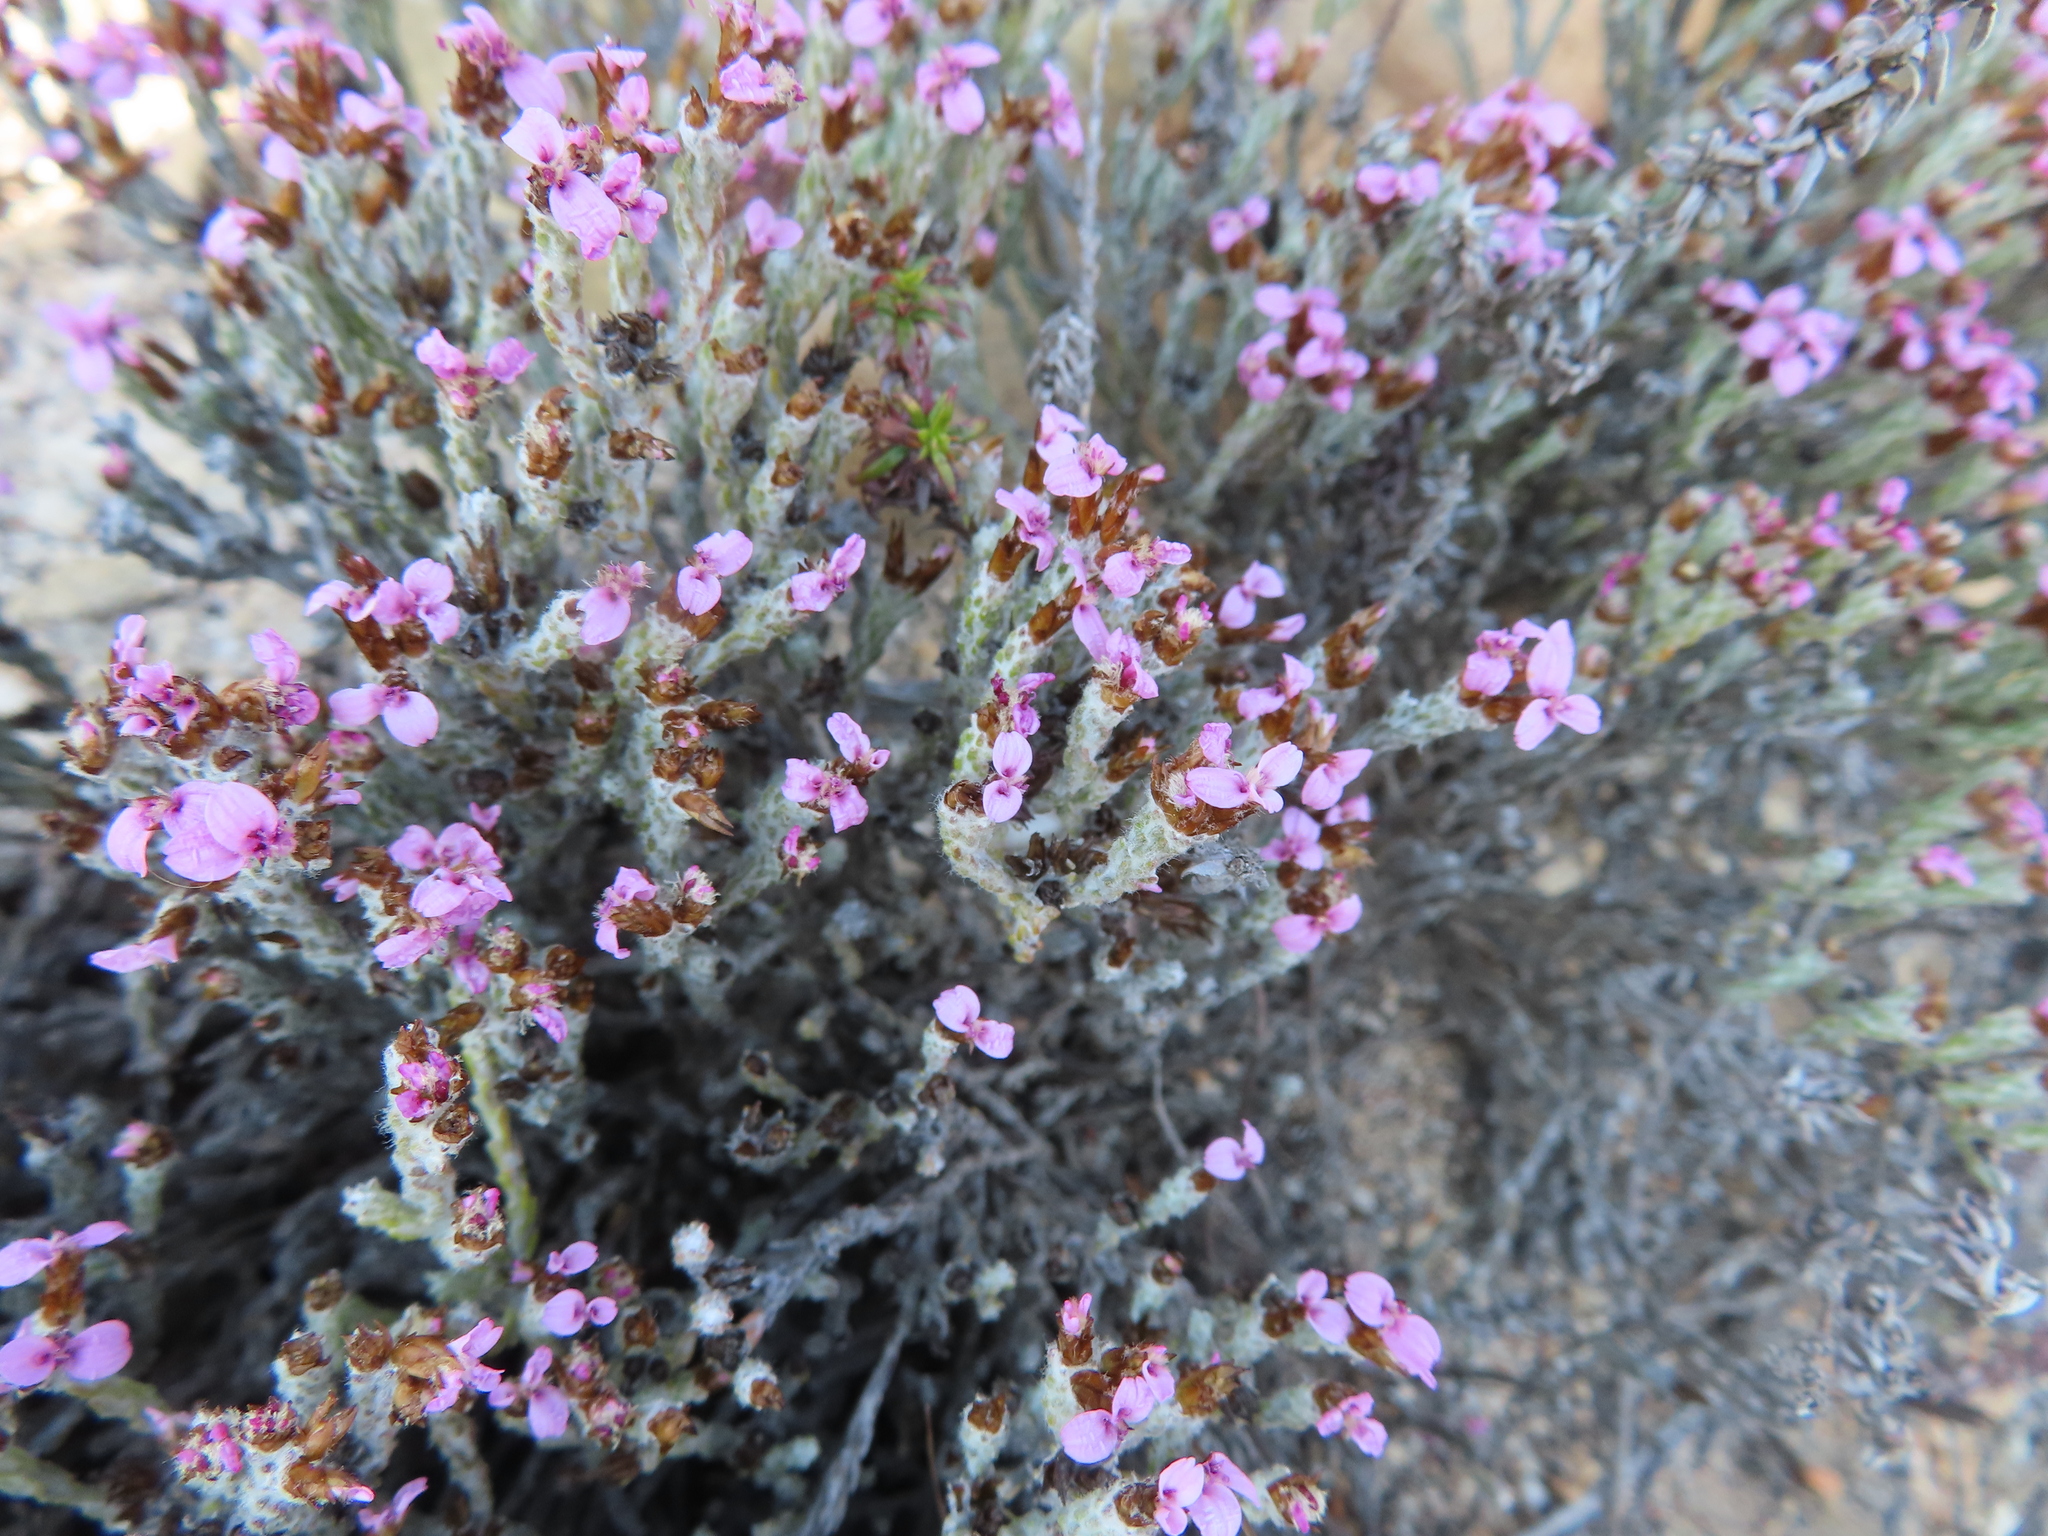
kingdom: Plantae
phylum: Tracheophyta
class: Magnoliopsida
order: Asterales
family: Asteraceae
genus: Disparago
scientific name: Disparago kolbei
